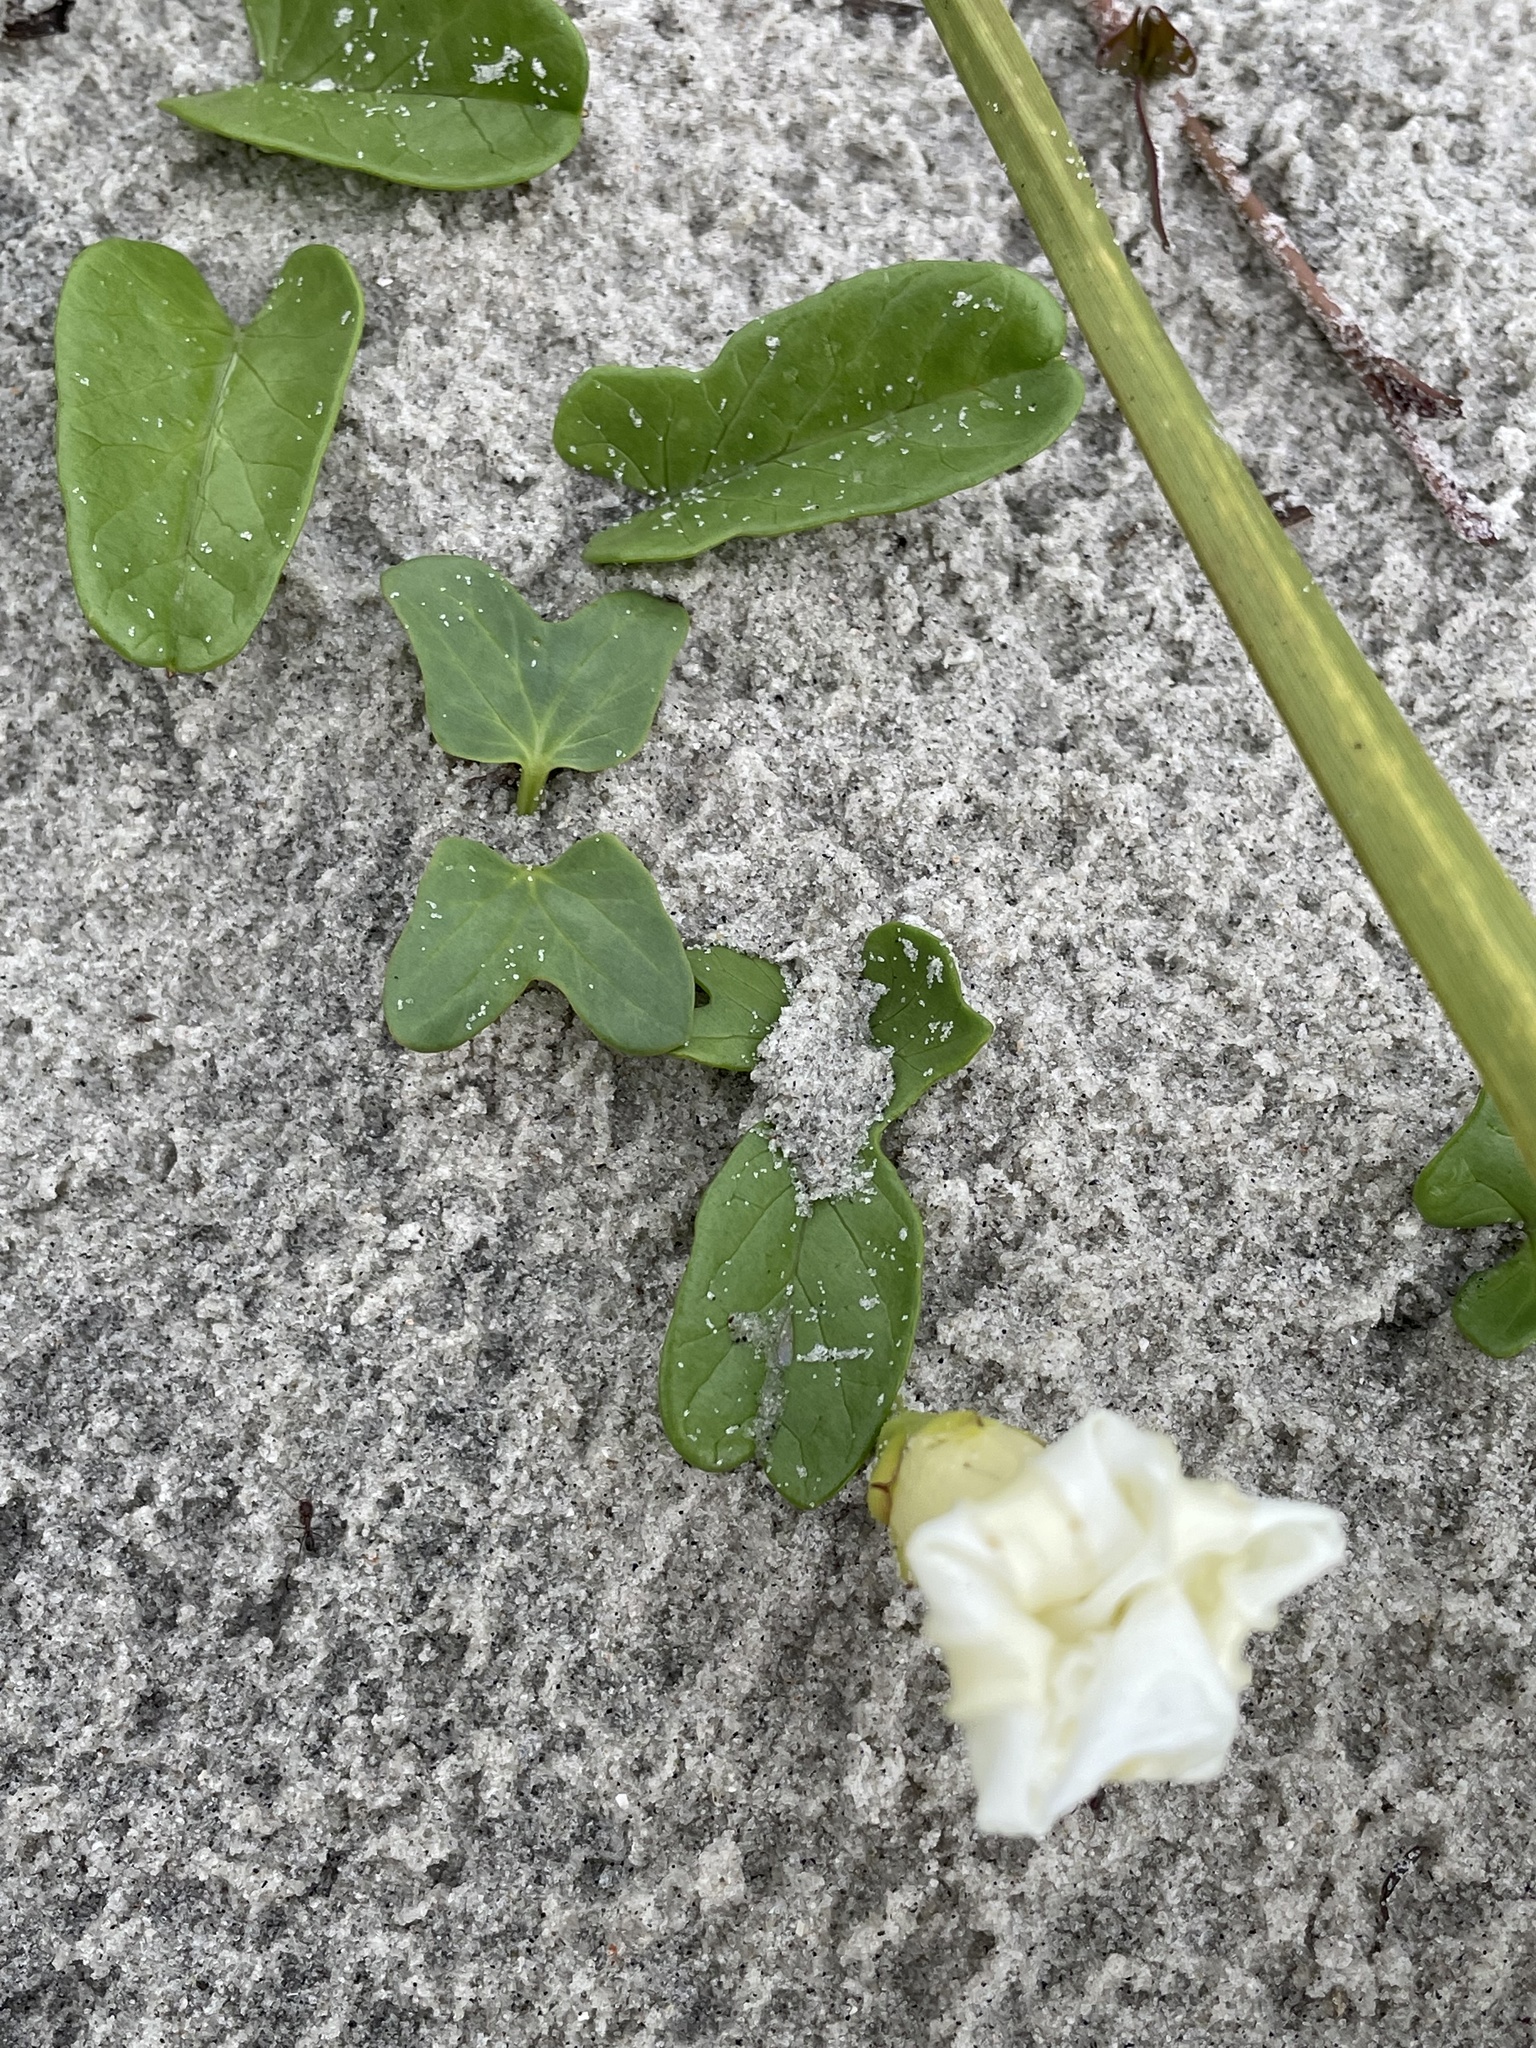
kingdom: Plantae
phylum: Tracheophyta
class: Magnoliopsida
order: Solanales
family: Convolvulaceae
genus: Ipomoea
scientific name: Ipomoea imperati
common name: Fiddle-leaf morning-glory
